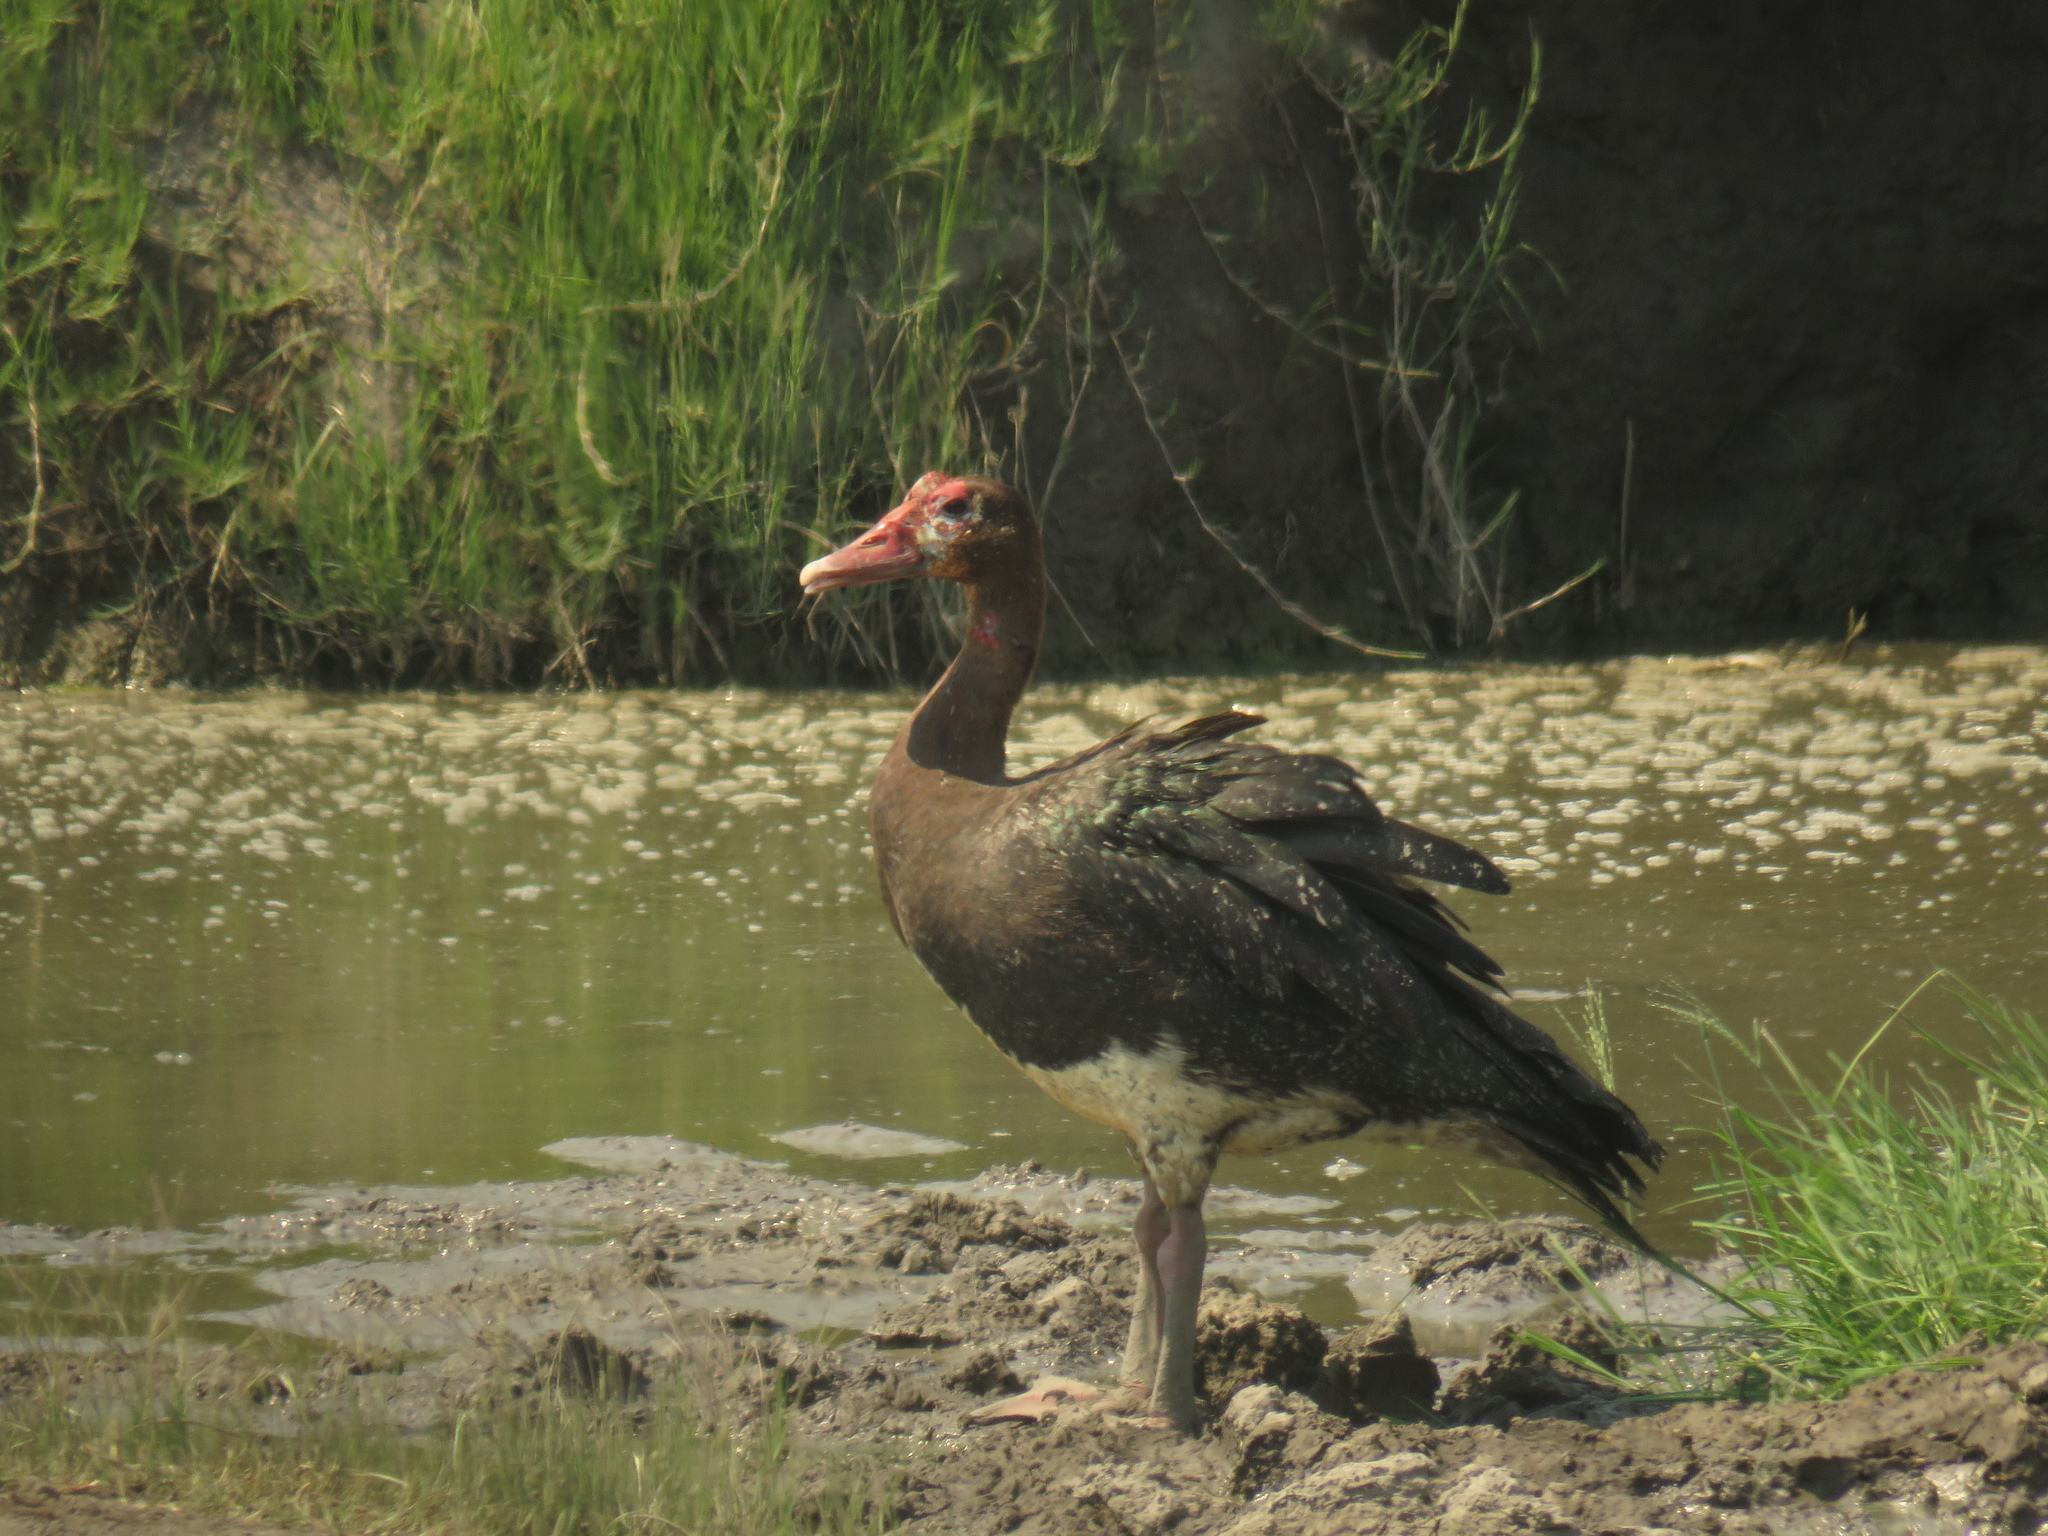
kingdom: Animalia
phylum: Chordata
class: Aves
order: Anseriformes
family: Anatidae
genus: Plectropterus
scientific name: Plectropterus gambensis
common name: Spur-winged goose
